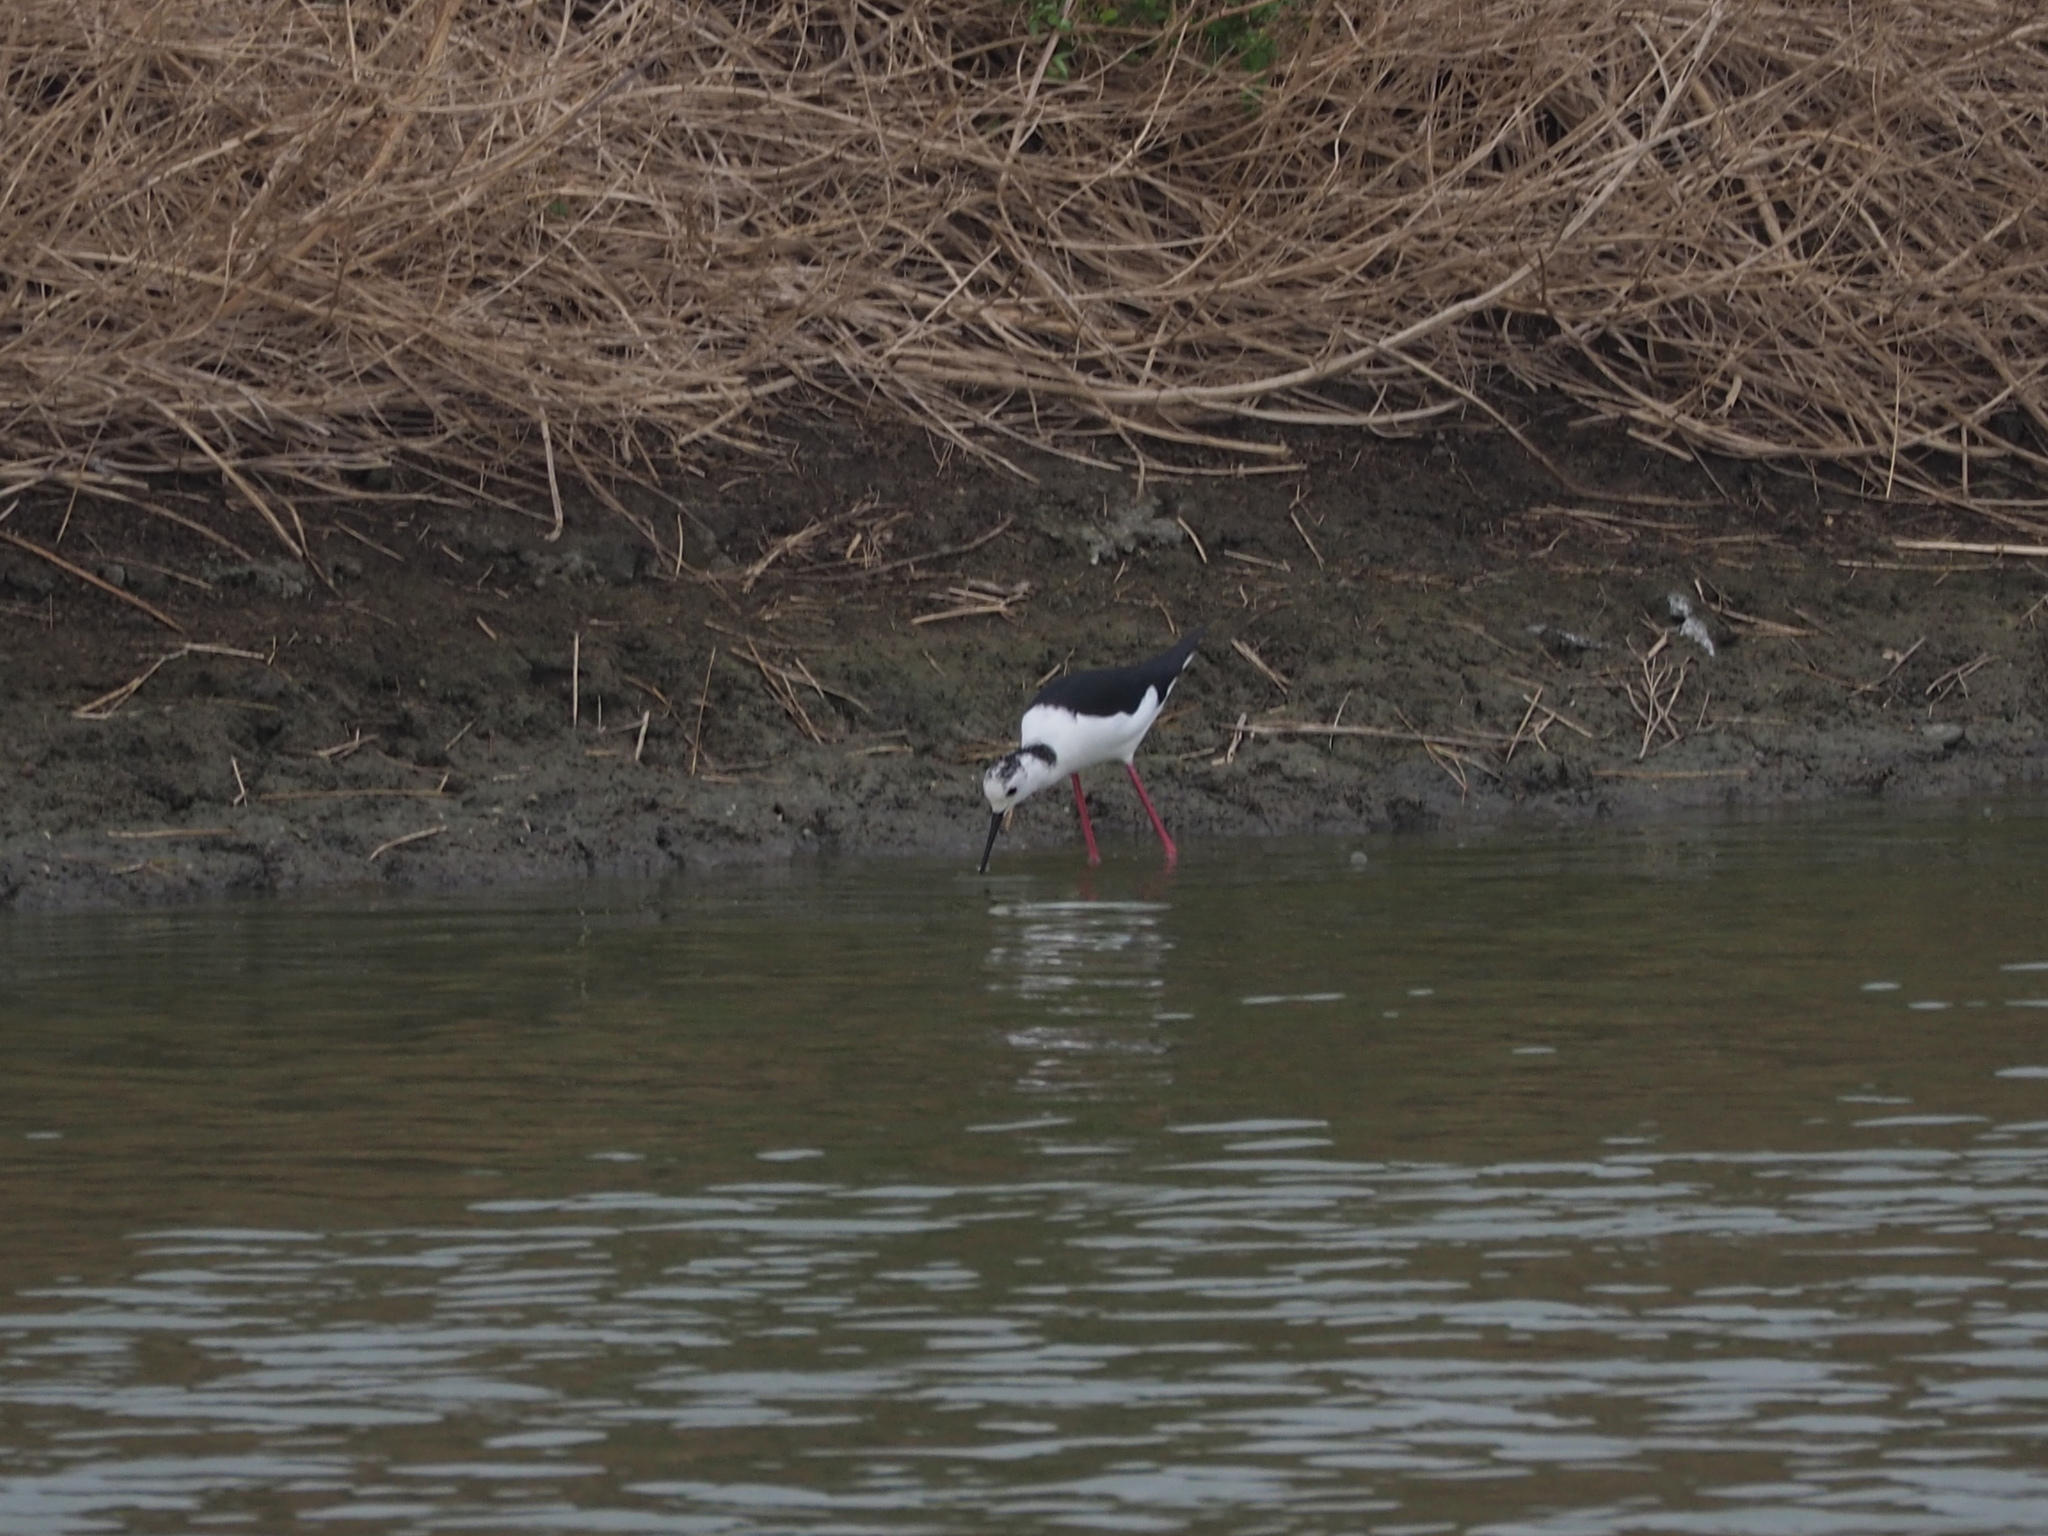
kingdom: Animalia
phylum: Chordata
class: Aves
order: Charadriiformes
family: Recurvirostridae
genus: Himantopus
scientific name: Himantopus himantopus
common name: Black-winged stilt
